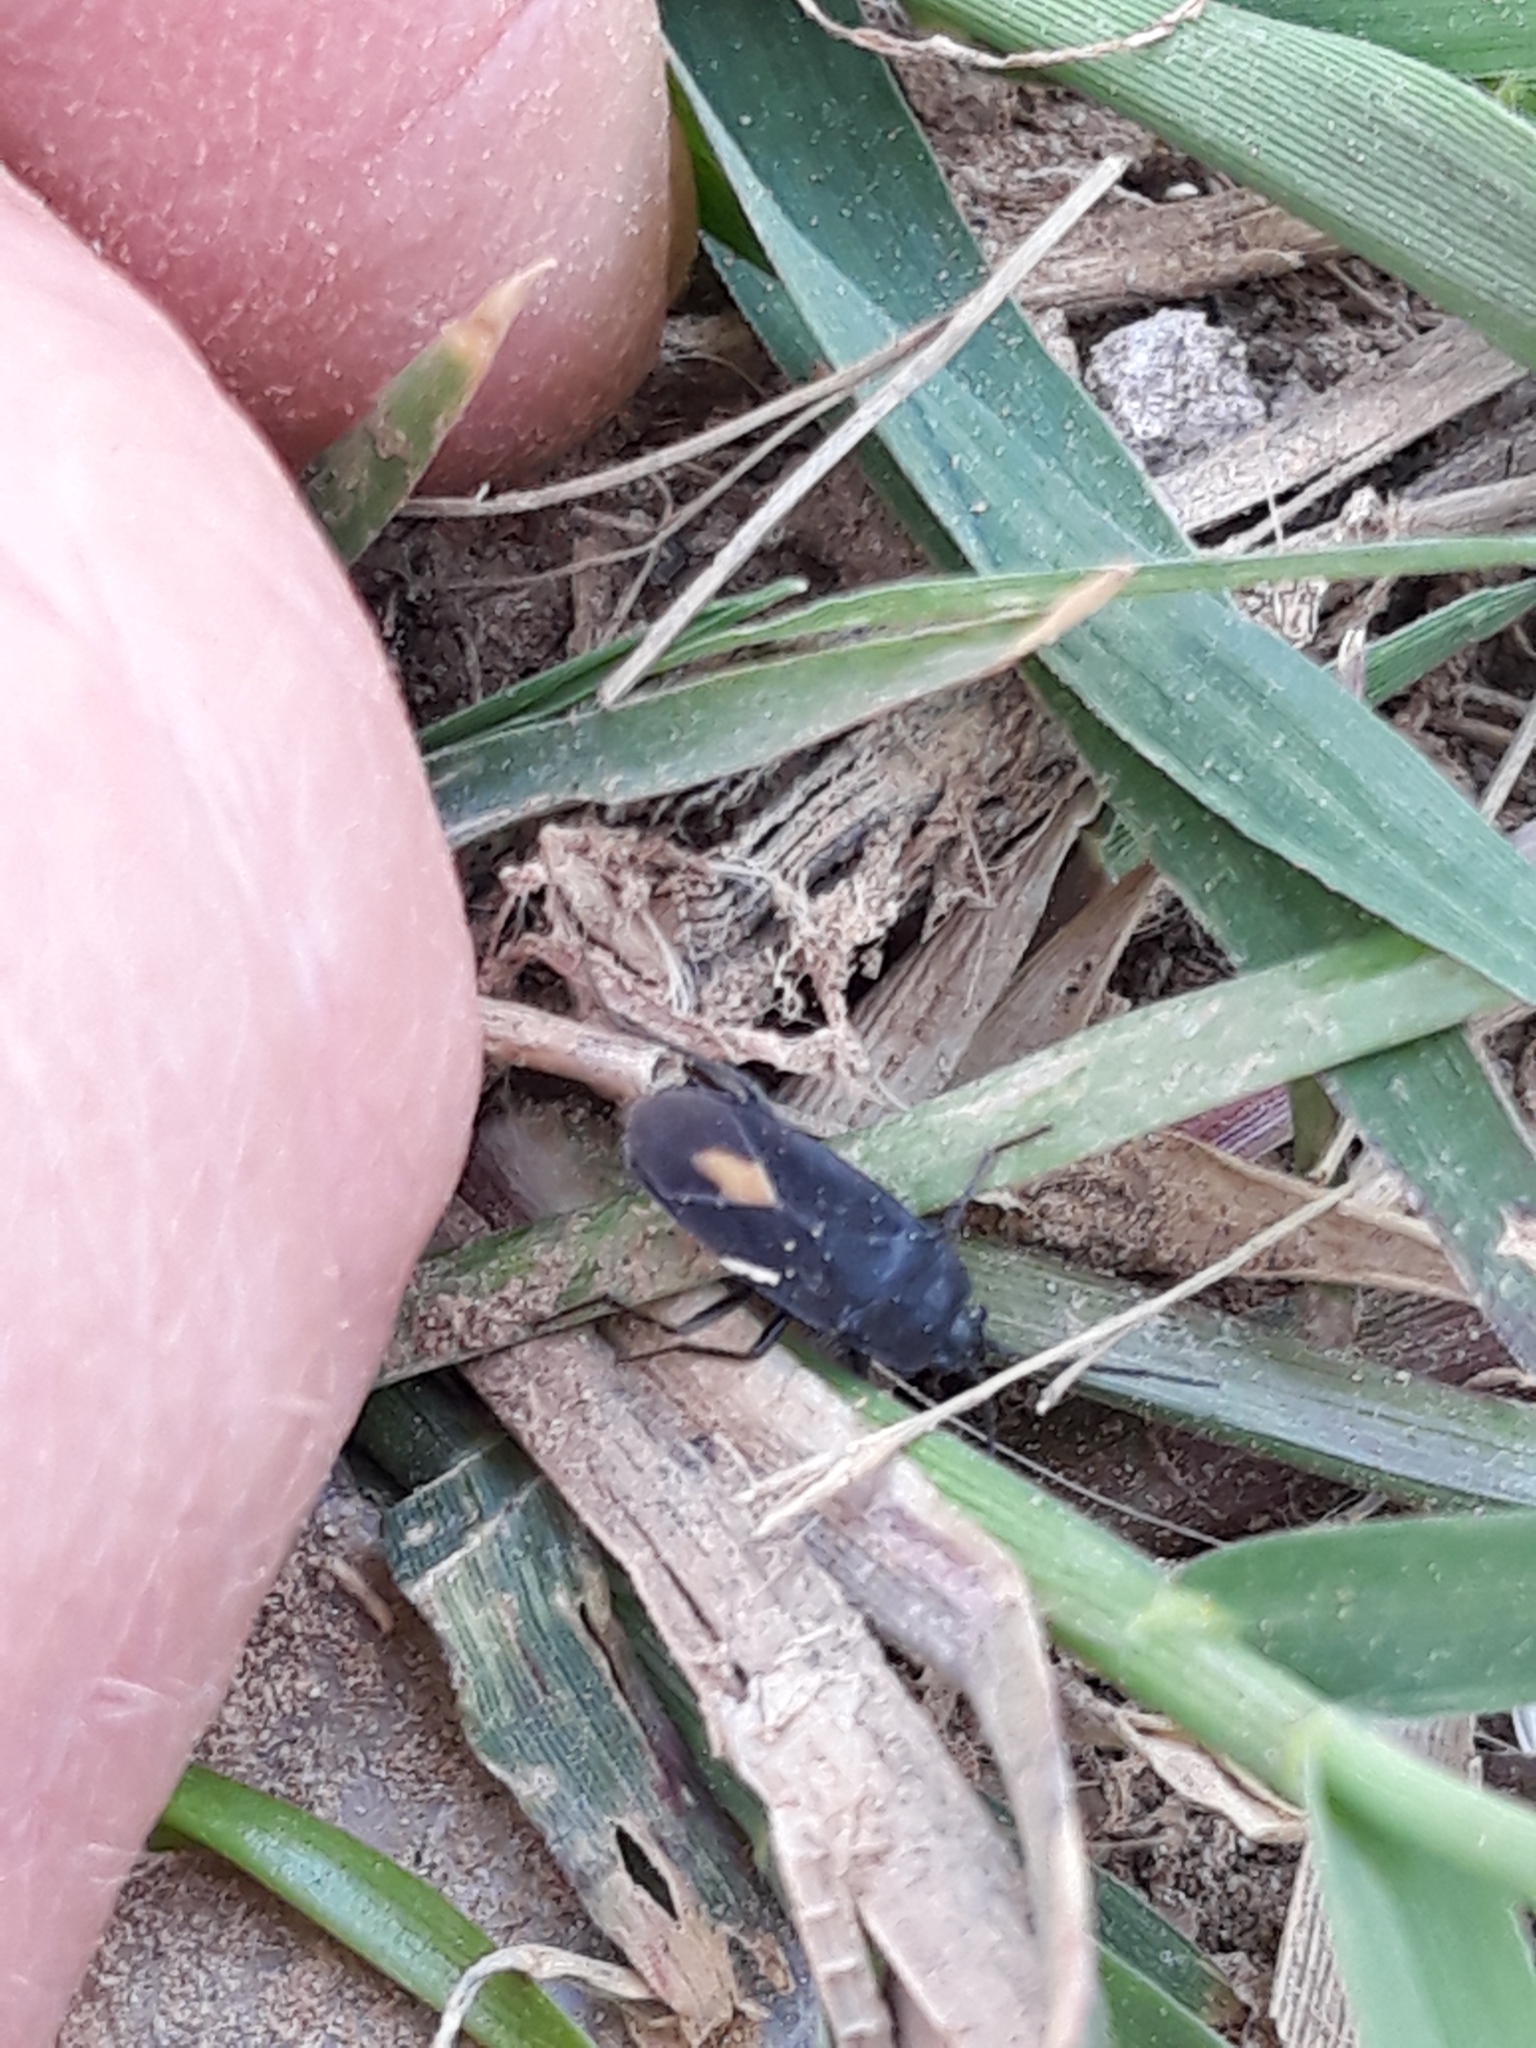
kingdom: Animalia
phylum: Arthropoda
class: Insecta
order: Hemiptera
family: Rhyparochromidae
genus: Aphanus
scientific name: Aphanus rolandri
